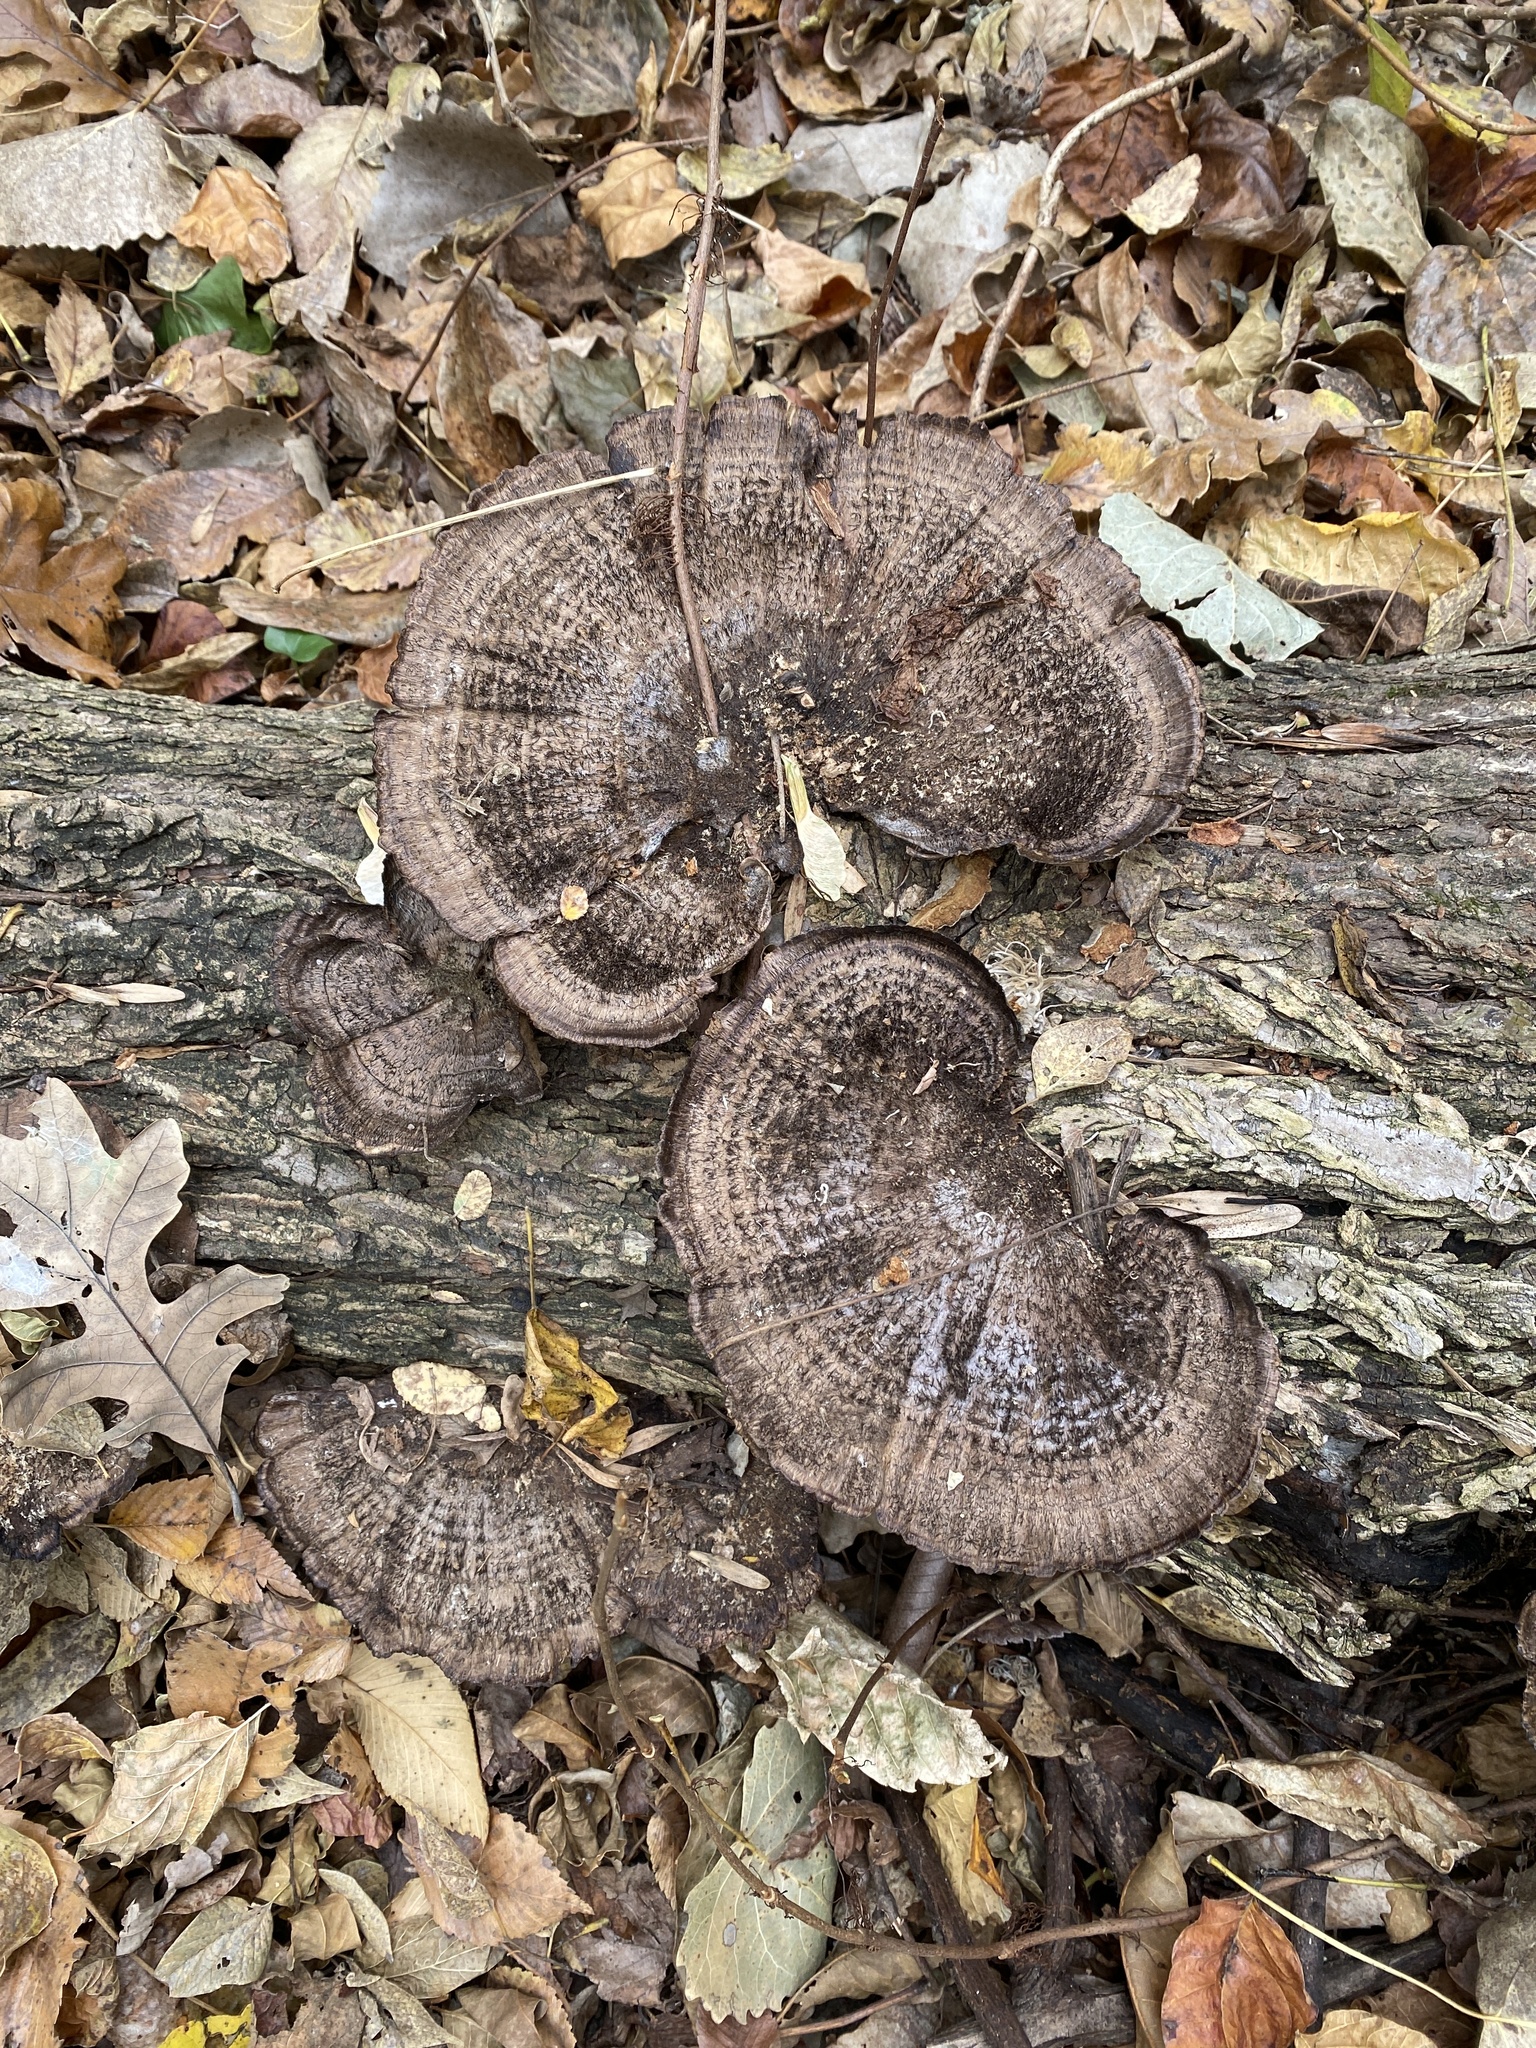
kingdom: Fungi
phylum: Basidiomycota
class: Agaricomycetes
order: Polyporales
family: Cerrenaceae
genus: Cerrena
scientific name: Cerrena hydnoides
